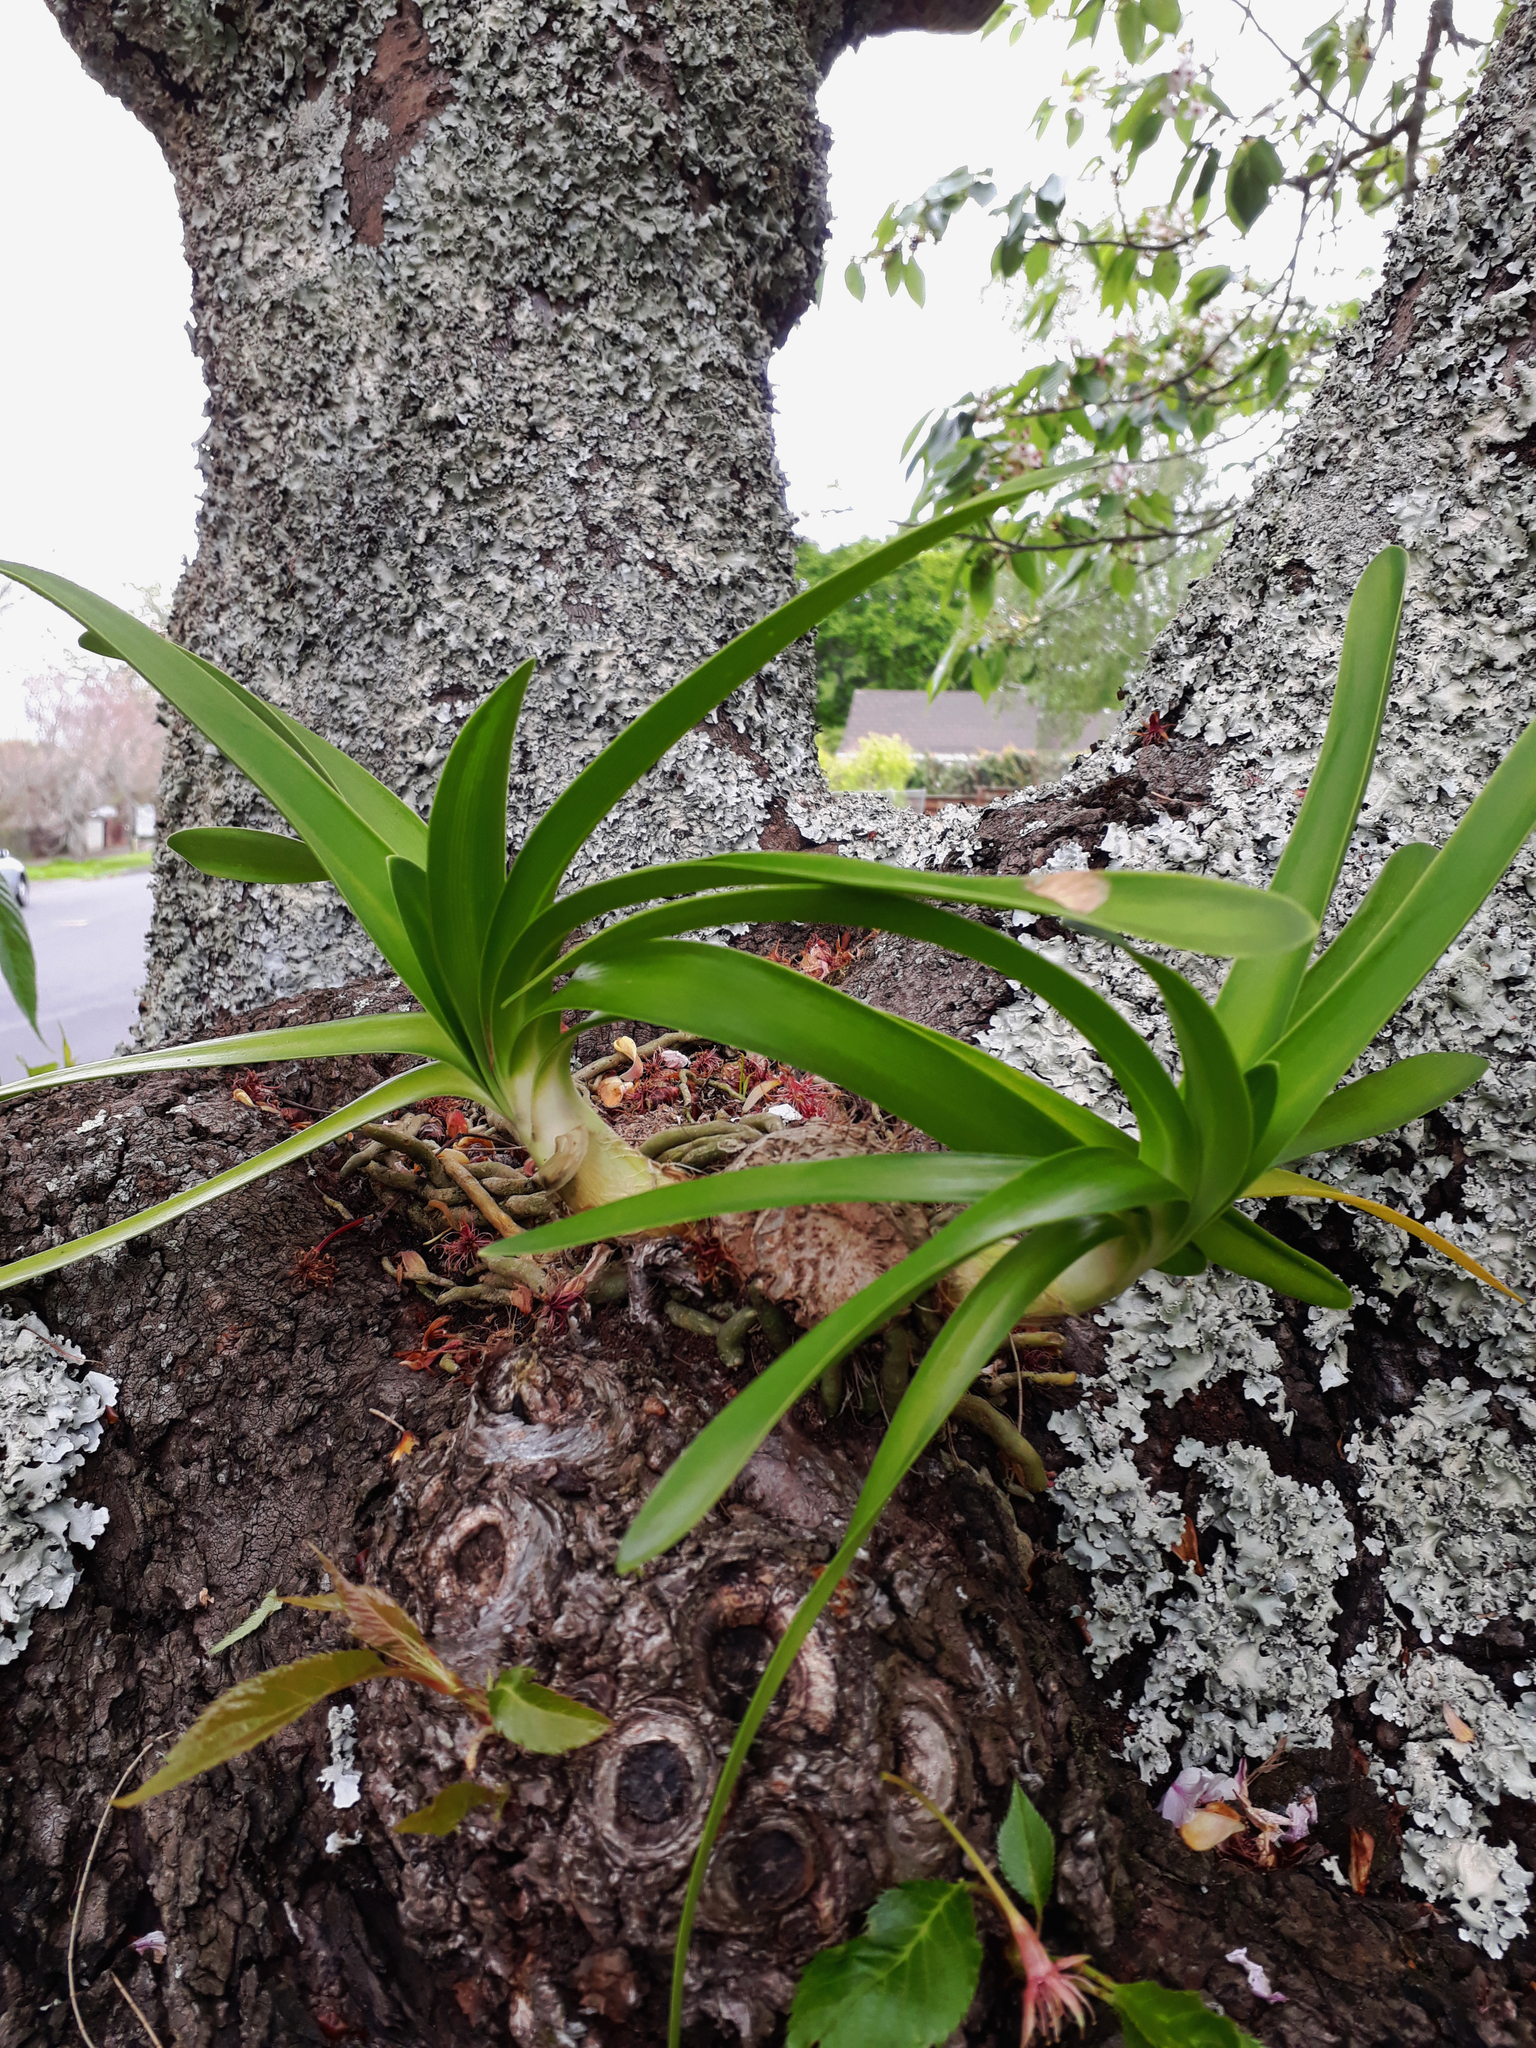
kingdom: Plantae
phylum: Tracheophyta
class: Liliopsida
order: Asparagales
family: Amaryllidaceae
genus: Agapanthus
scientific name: Agapanthus praecox
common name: African-lily
